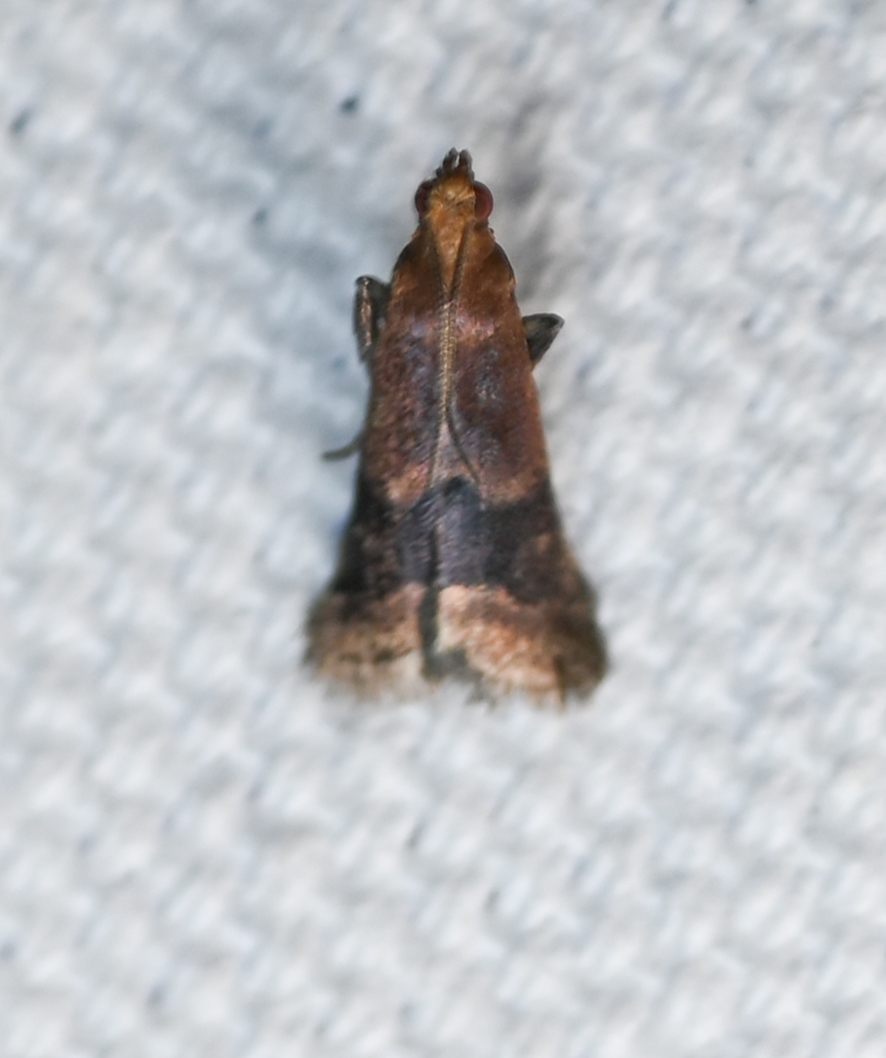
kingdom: Animalia
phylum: Arthropoda
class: Insecta
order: Lepidoptera
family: Pyralidae
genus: Eulogia
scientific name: Eulogia ochrifrontella
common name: Broad-banded eulogia moth
